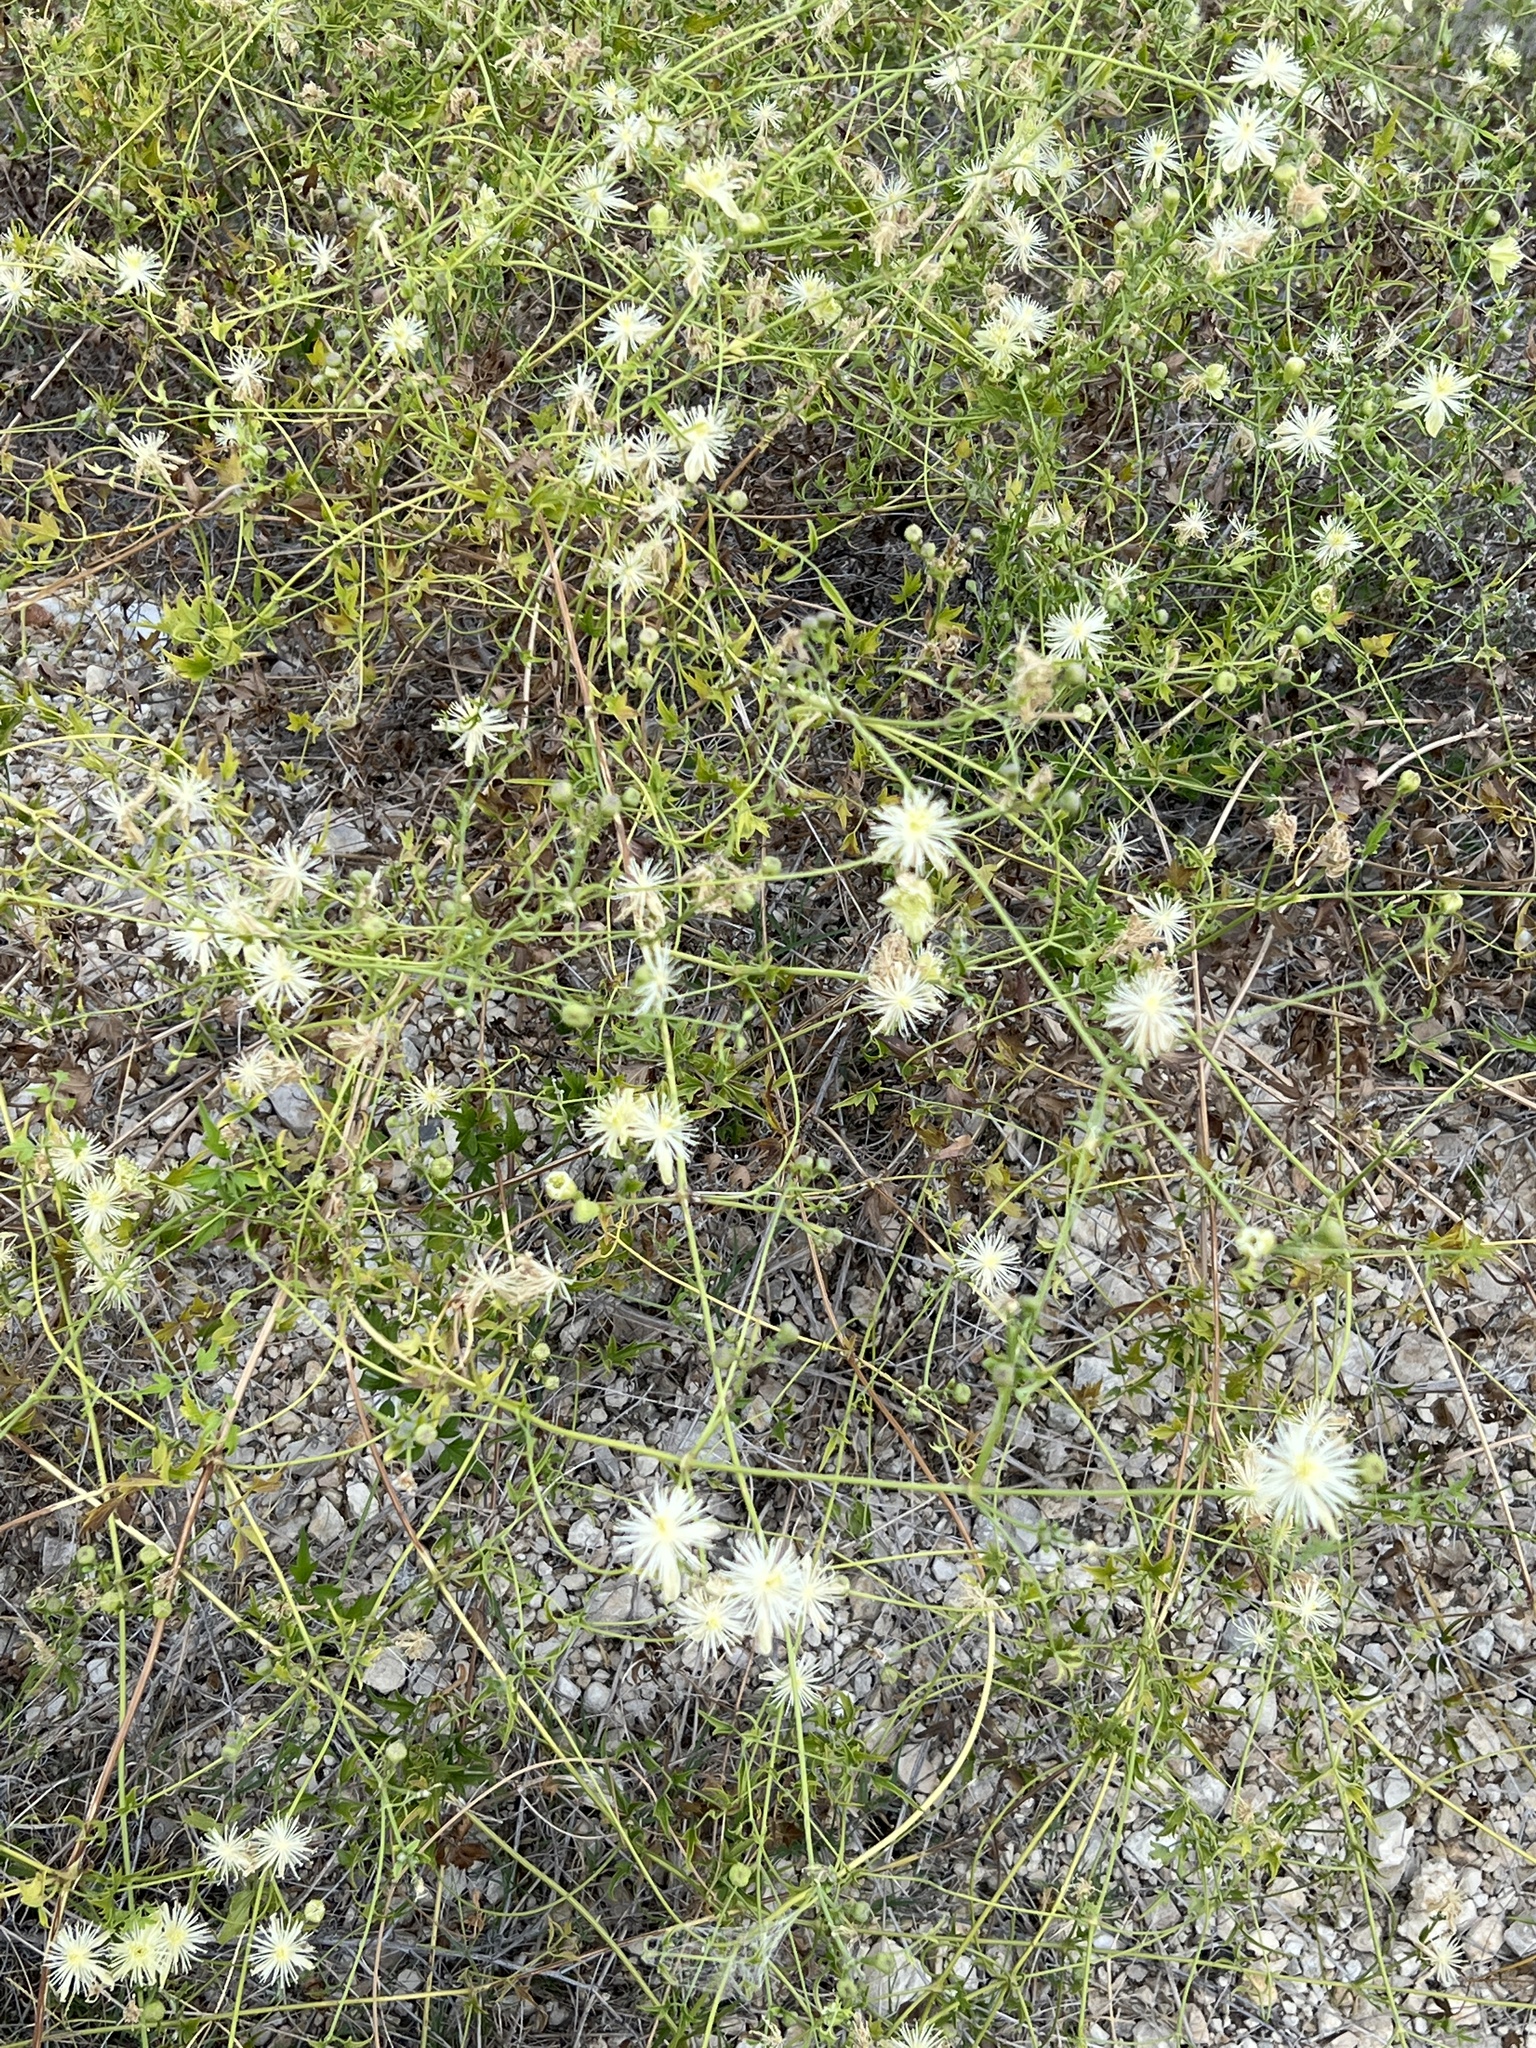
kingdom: Plantae
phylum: Tracheophyta
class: Magnoliopsida
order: Ranunculales
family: Ranunculaceae
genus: Clematis
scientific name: Clematis drummondii
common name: Texas virgin's bower
